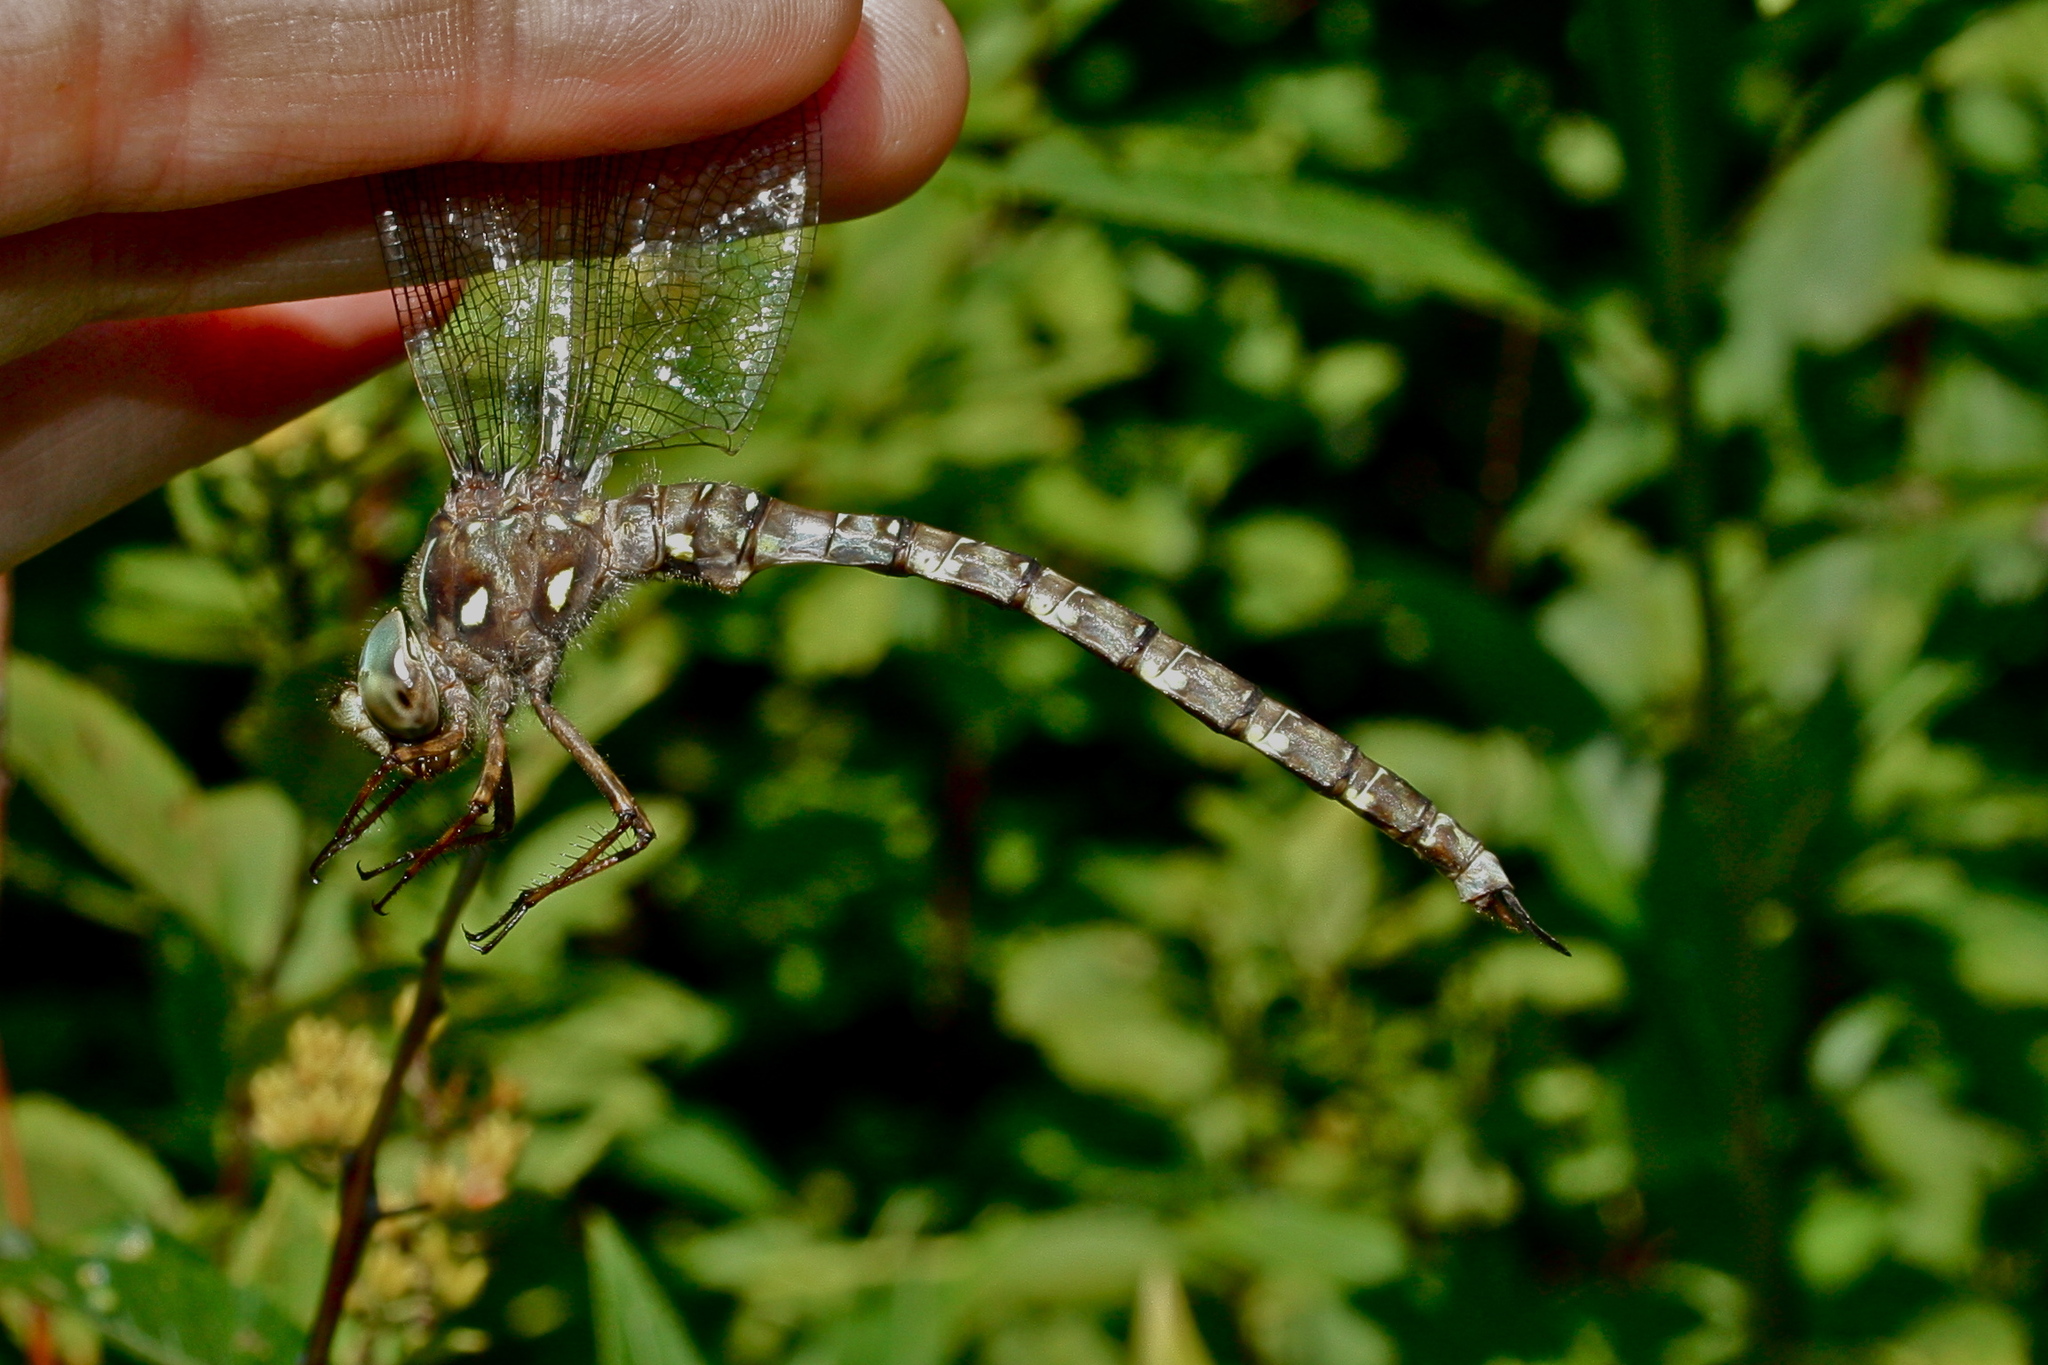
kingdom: Animalia
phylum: Arthropoda
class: Insecta
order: Odonata
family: Aeshnidae
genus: Boyeria
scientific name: Boyeria grafiana
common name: Ocellated darner
